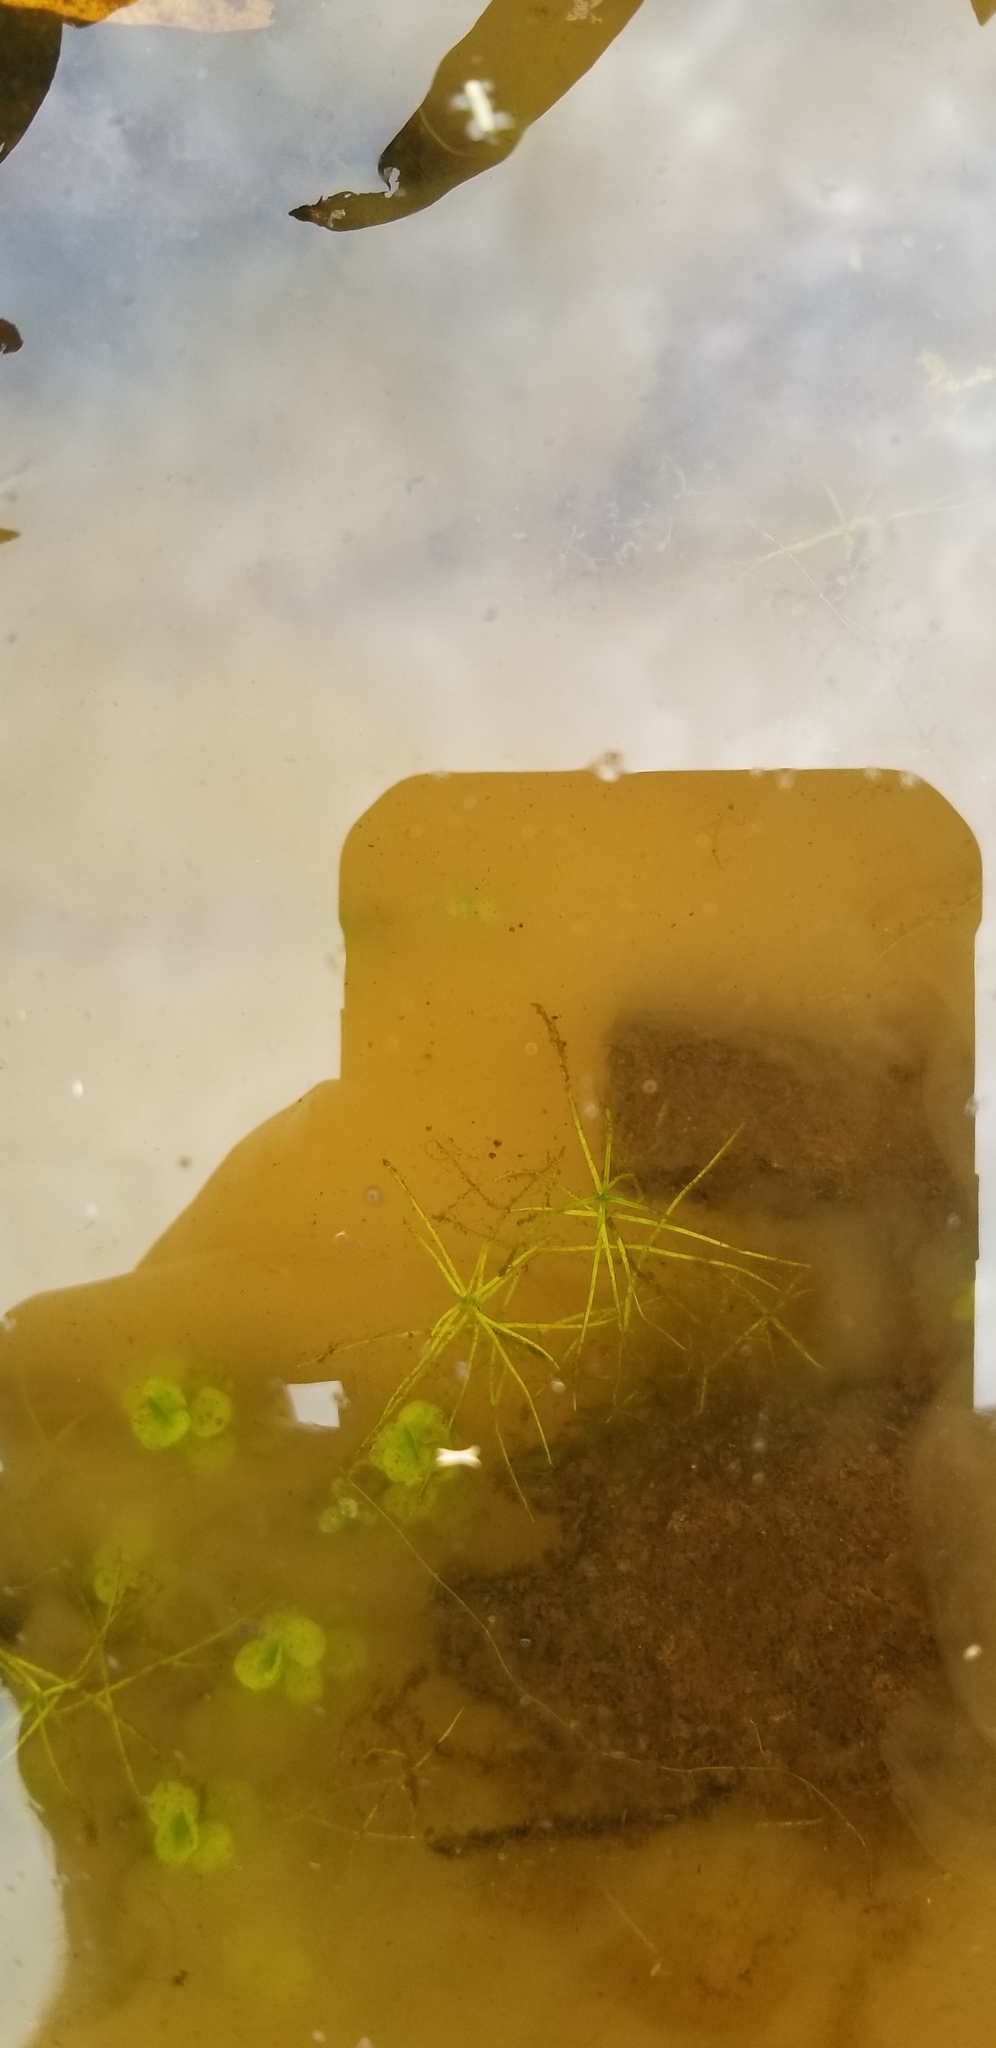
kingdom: Plantae
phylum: Tracheophyta
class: Magnoliopsida
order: Lamiales
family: Plantaginaceae
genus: Callitriche
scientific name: Callitriche heterophylla
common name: Two-headed water-starwort
